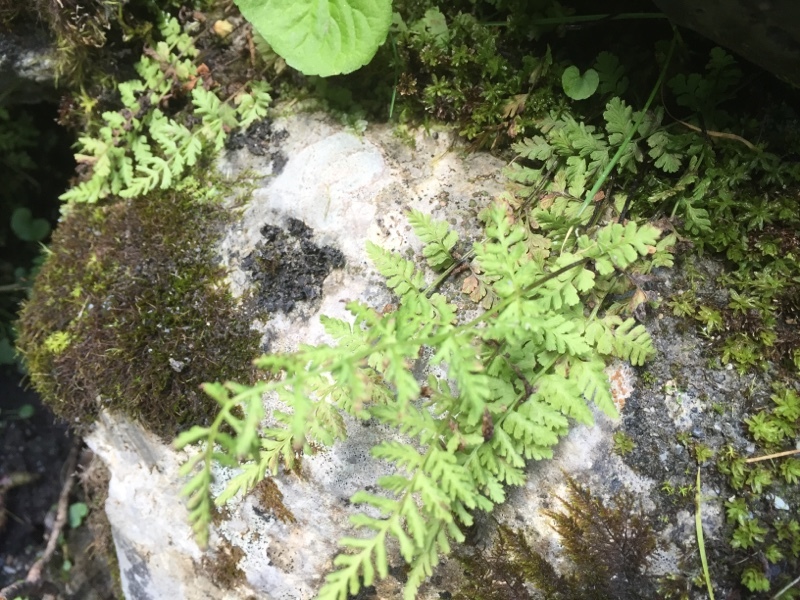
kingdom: Plantae
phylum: Tracheophyta
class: Polypodiopsida
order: Polypodiales
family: Cystopteridaceae
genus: Cystopteris
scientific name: Cystopteris fragilis
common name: Brittle bladder fern
